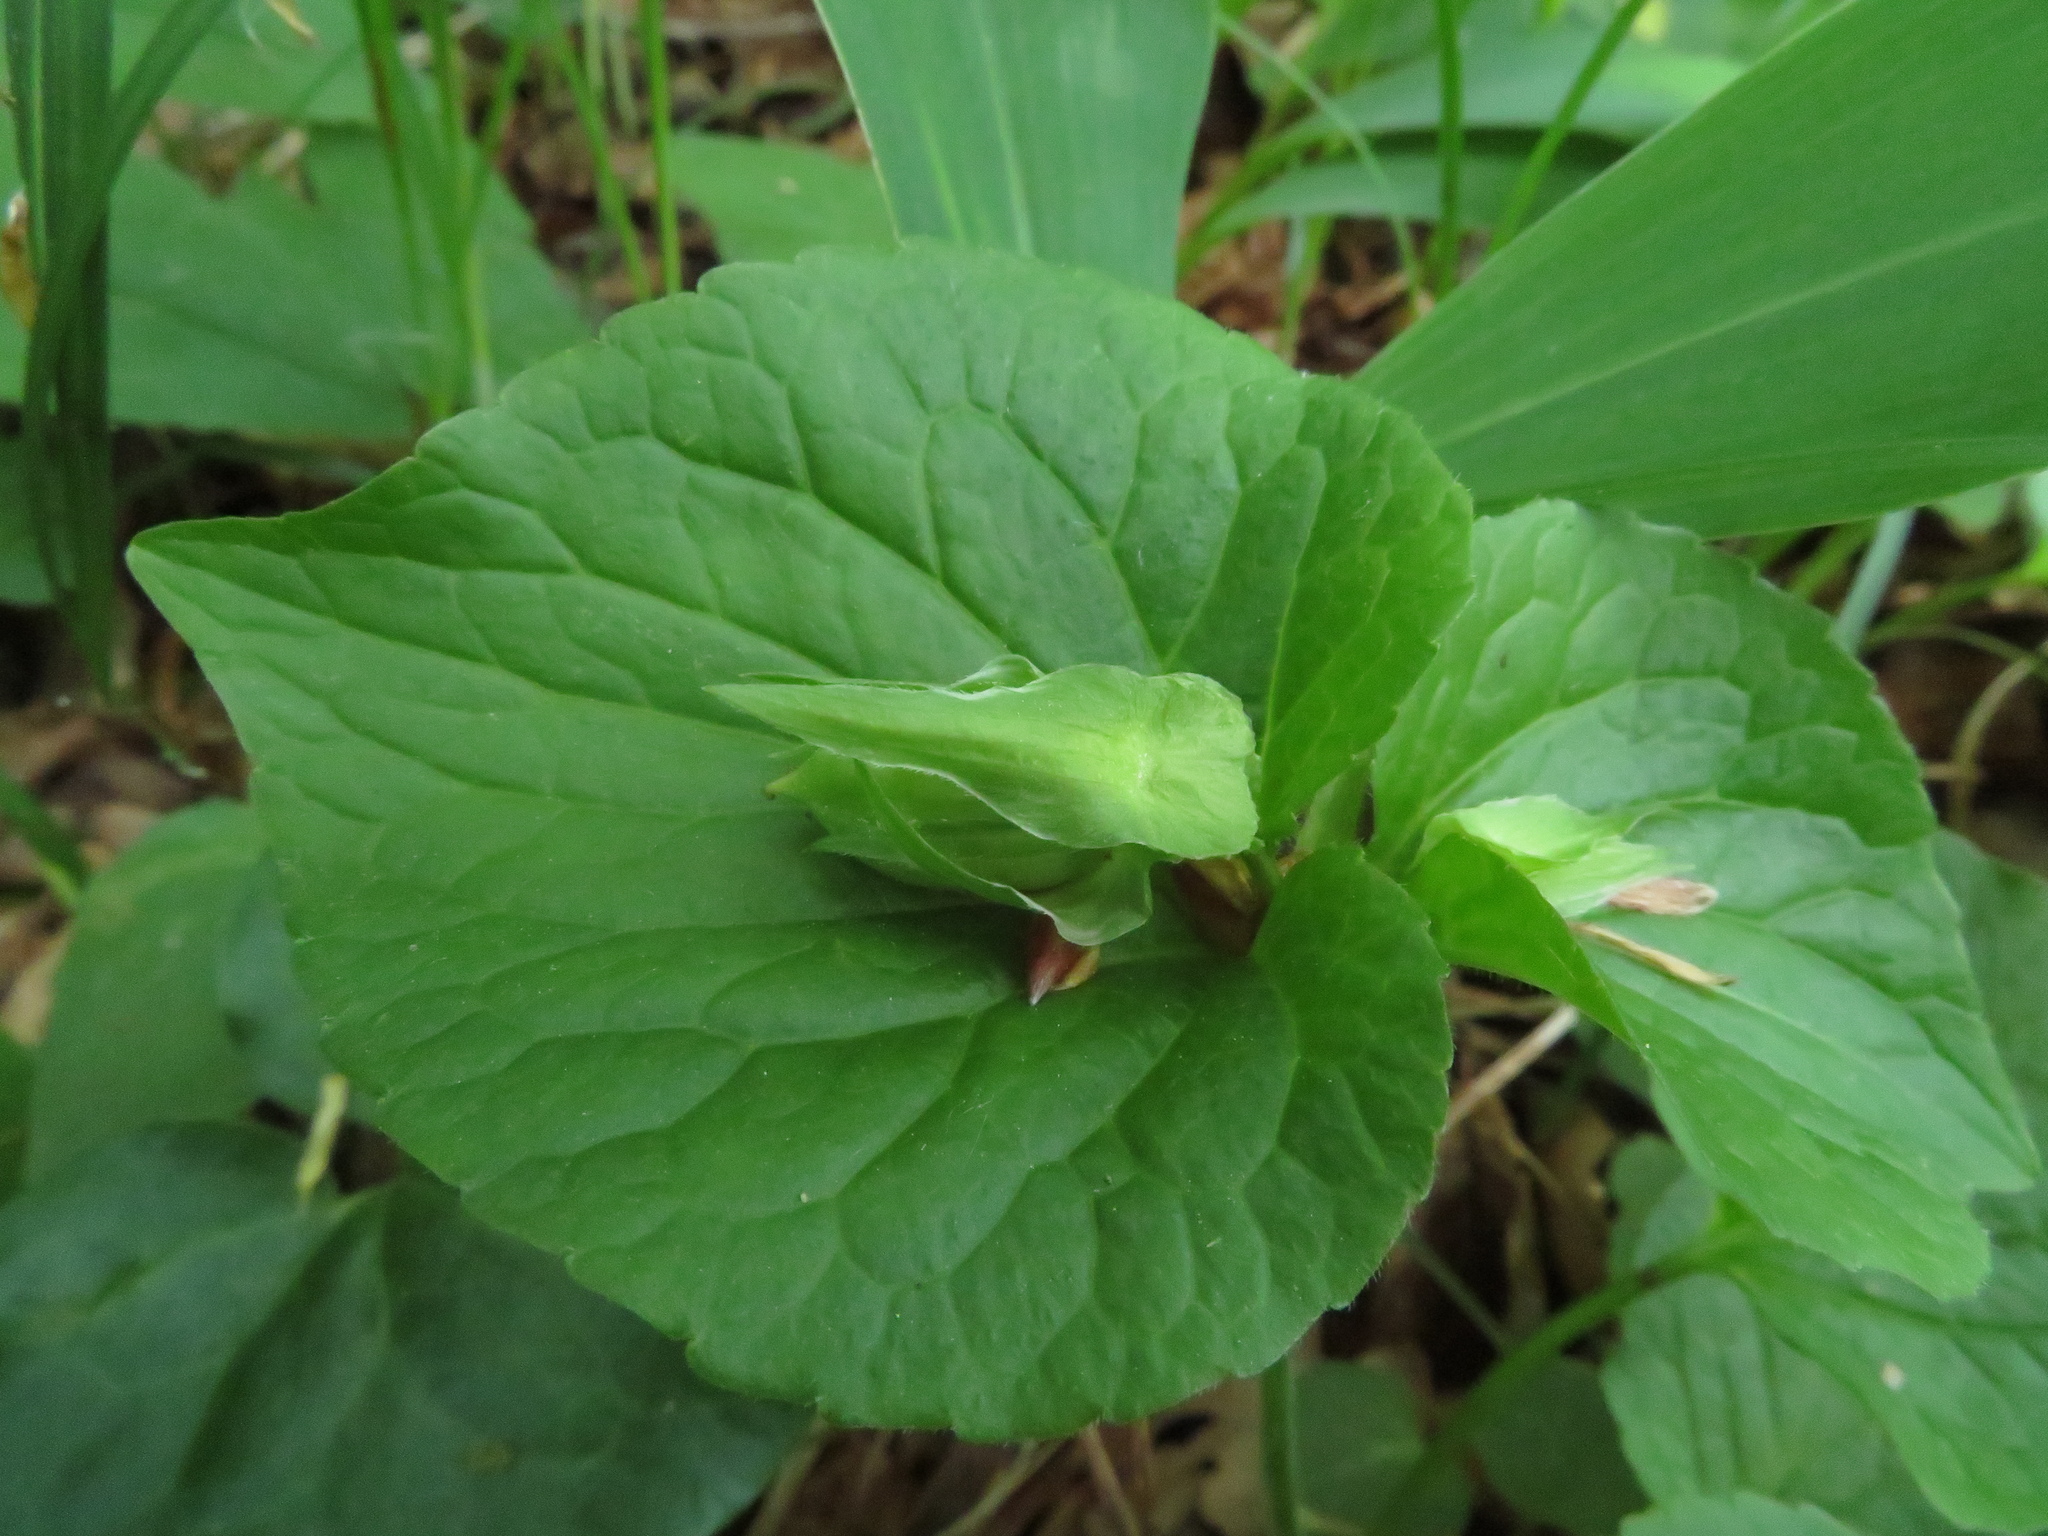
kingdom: Plantae
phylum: Tracheophyta
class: Magnoliopsida
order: Malpighiales
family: Violaceae
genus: Viola
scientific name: Viola mirabilis
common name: Wonder violet
